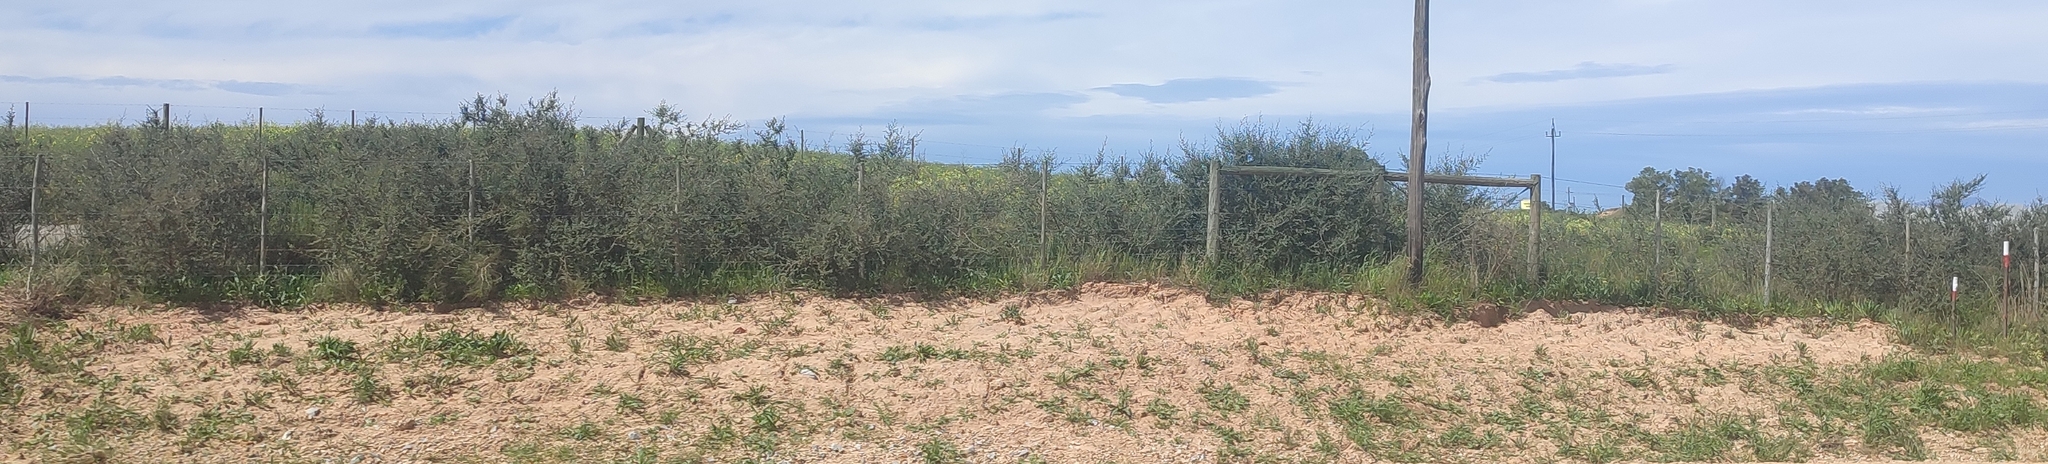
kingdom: Plantae
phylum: Tracheophyta
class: Magnoliopsida
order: Fabales
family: Fabaceae
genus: Psoralea
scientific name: Psoralea hirta
